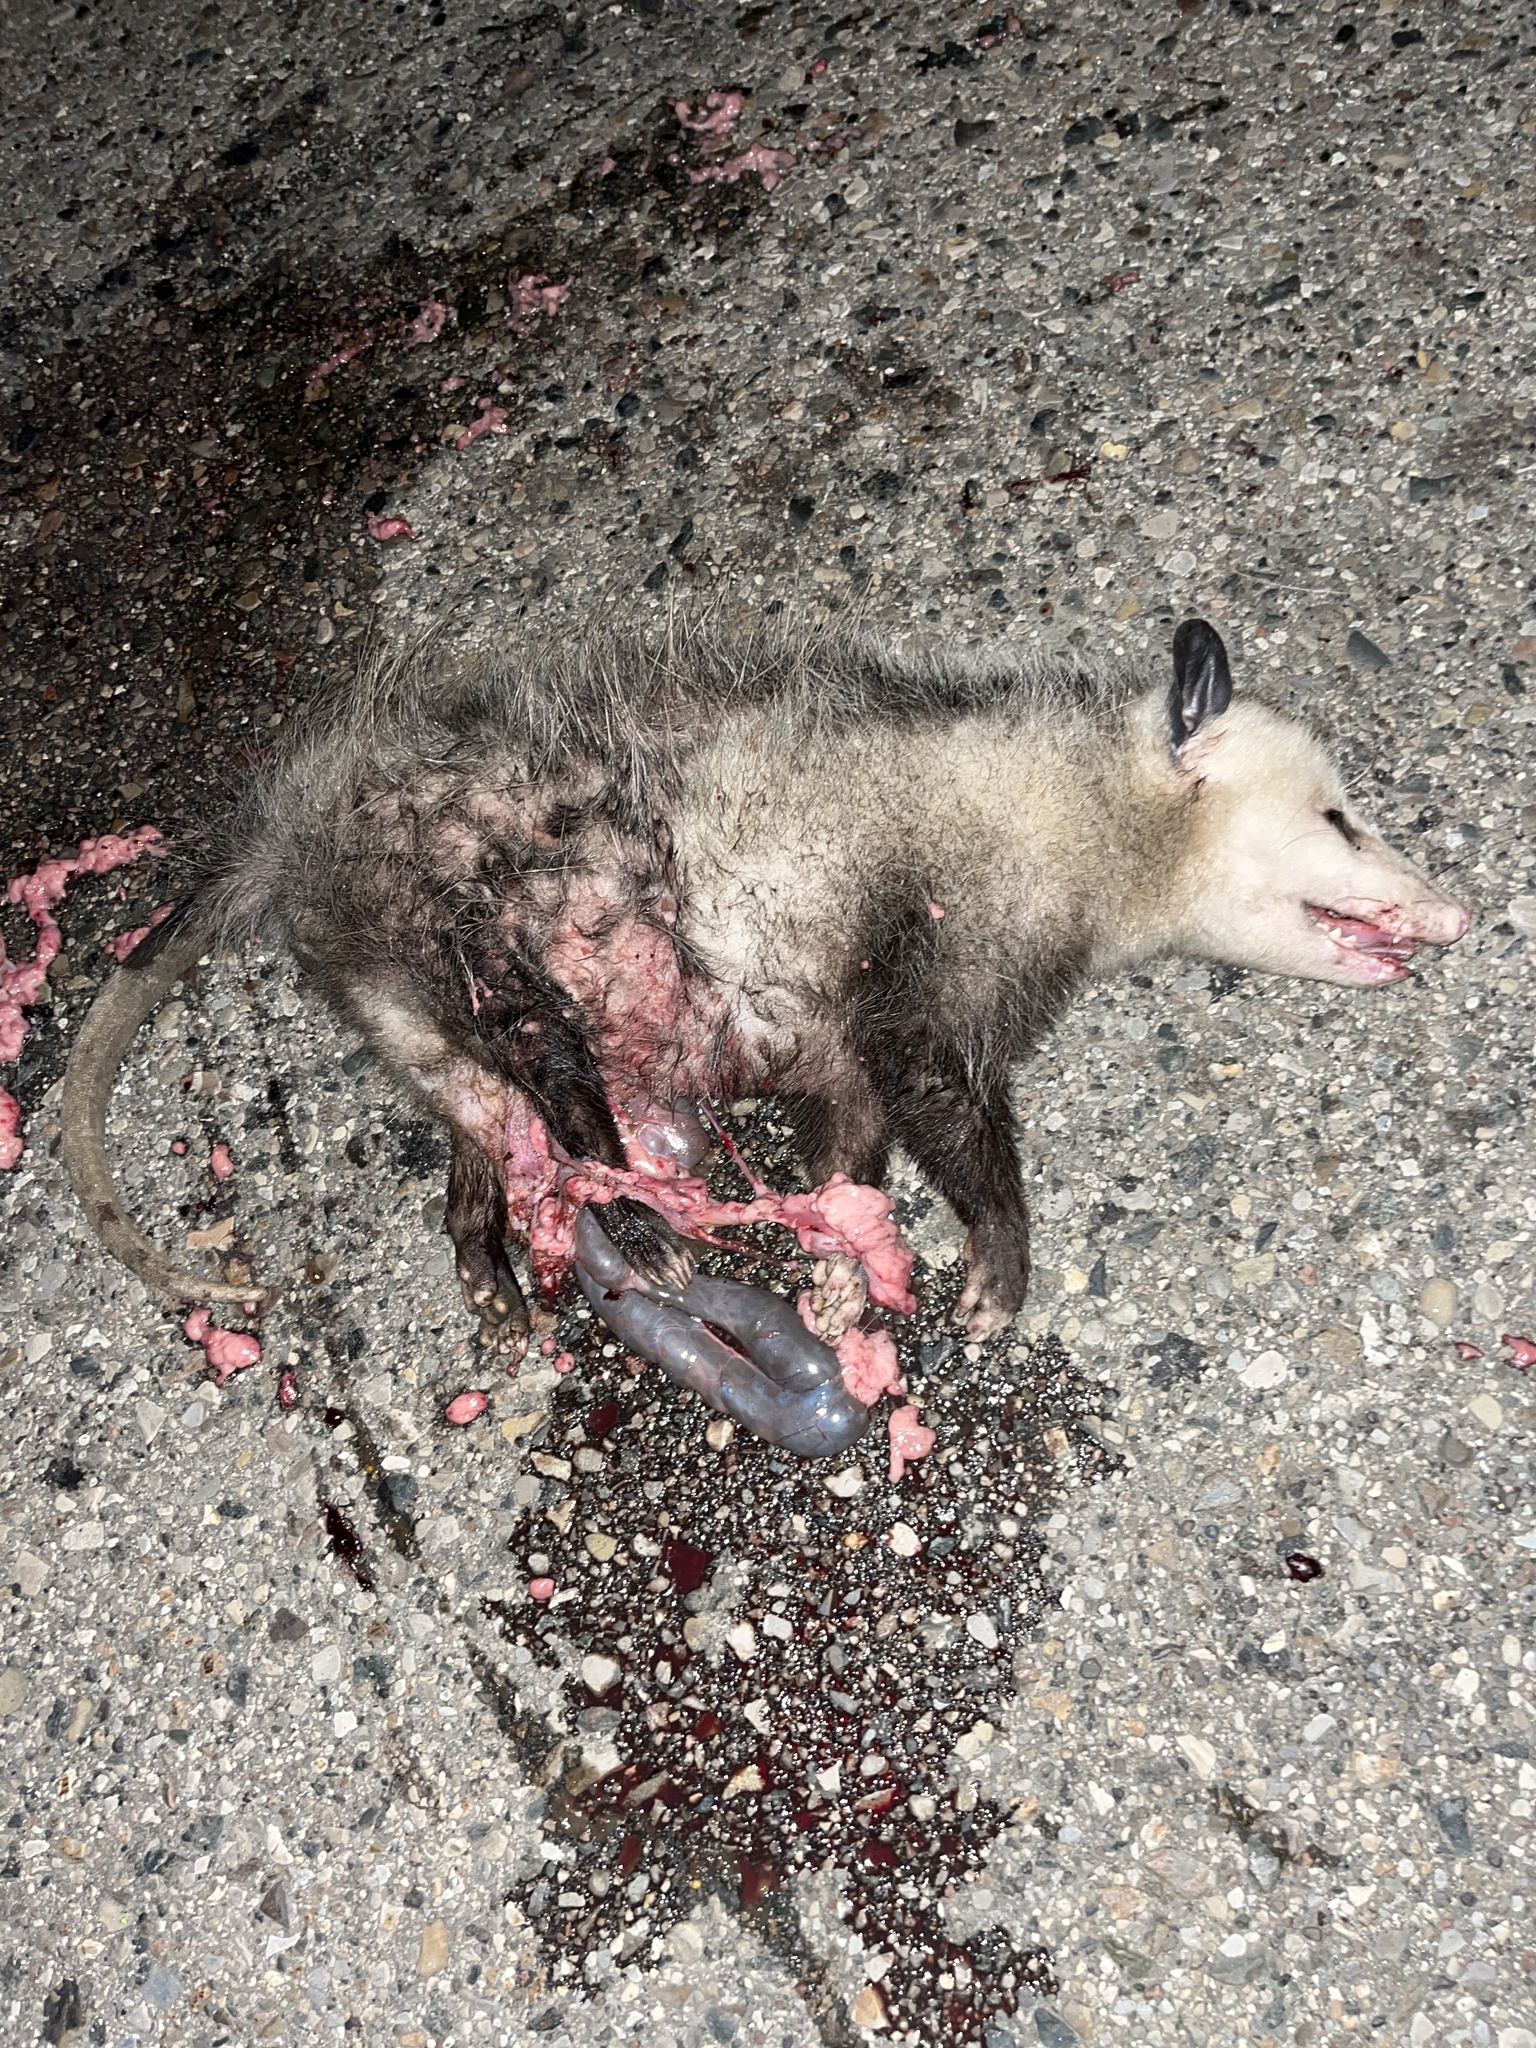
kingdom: Animalia
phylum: Chordata
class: Mammalia
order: Didelphimorphia
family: Didelphidae
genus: Didelphis
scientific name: Didelphis virginiana
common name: Virginia opossum
